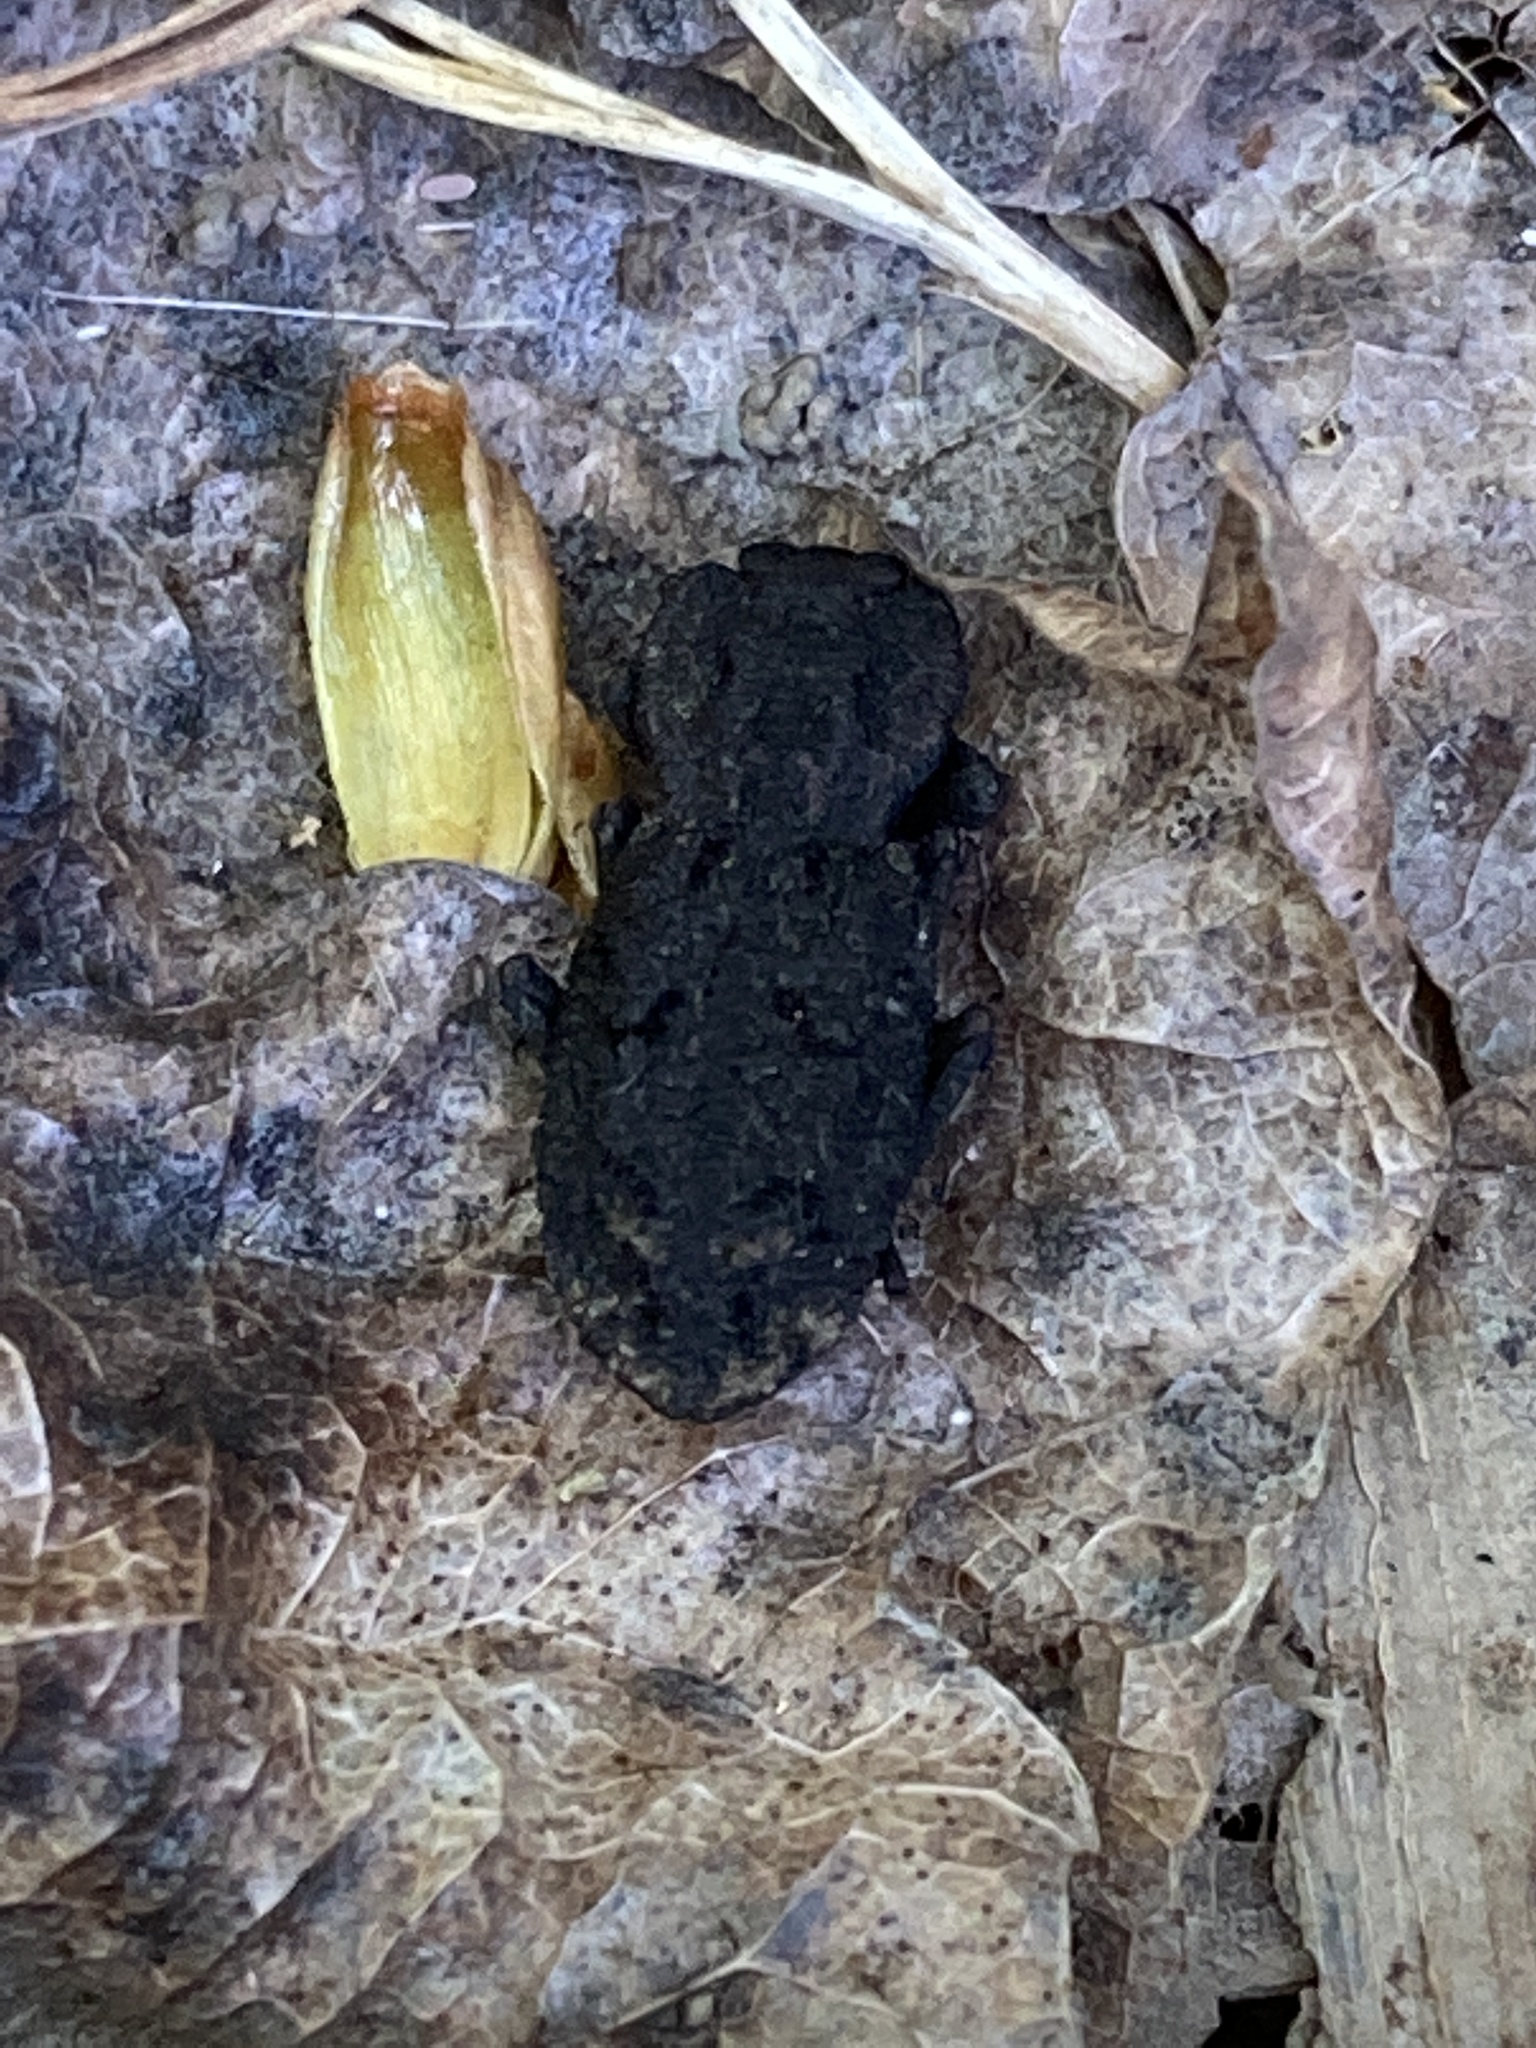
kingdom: Animalia
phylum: Arthropoda
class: Insecta
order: Coleoptera
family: Zopheridae
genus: Phloeodes
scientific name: Phloeodes diabolicus
